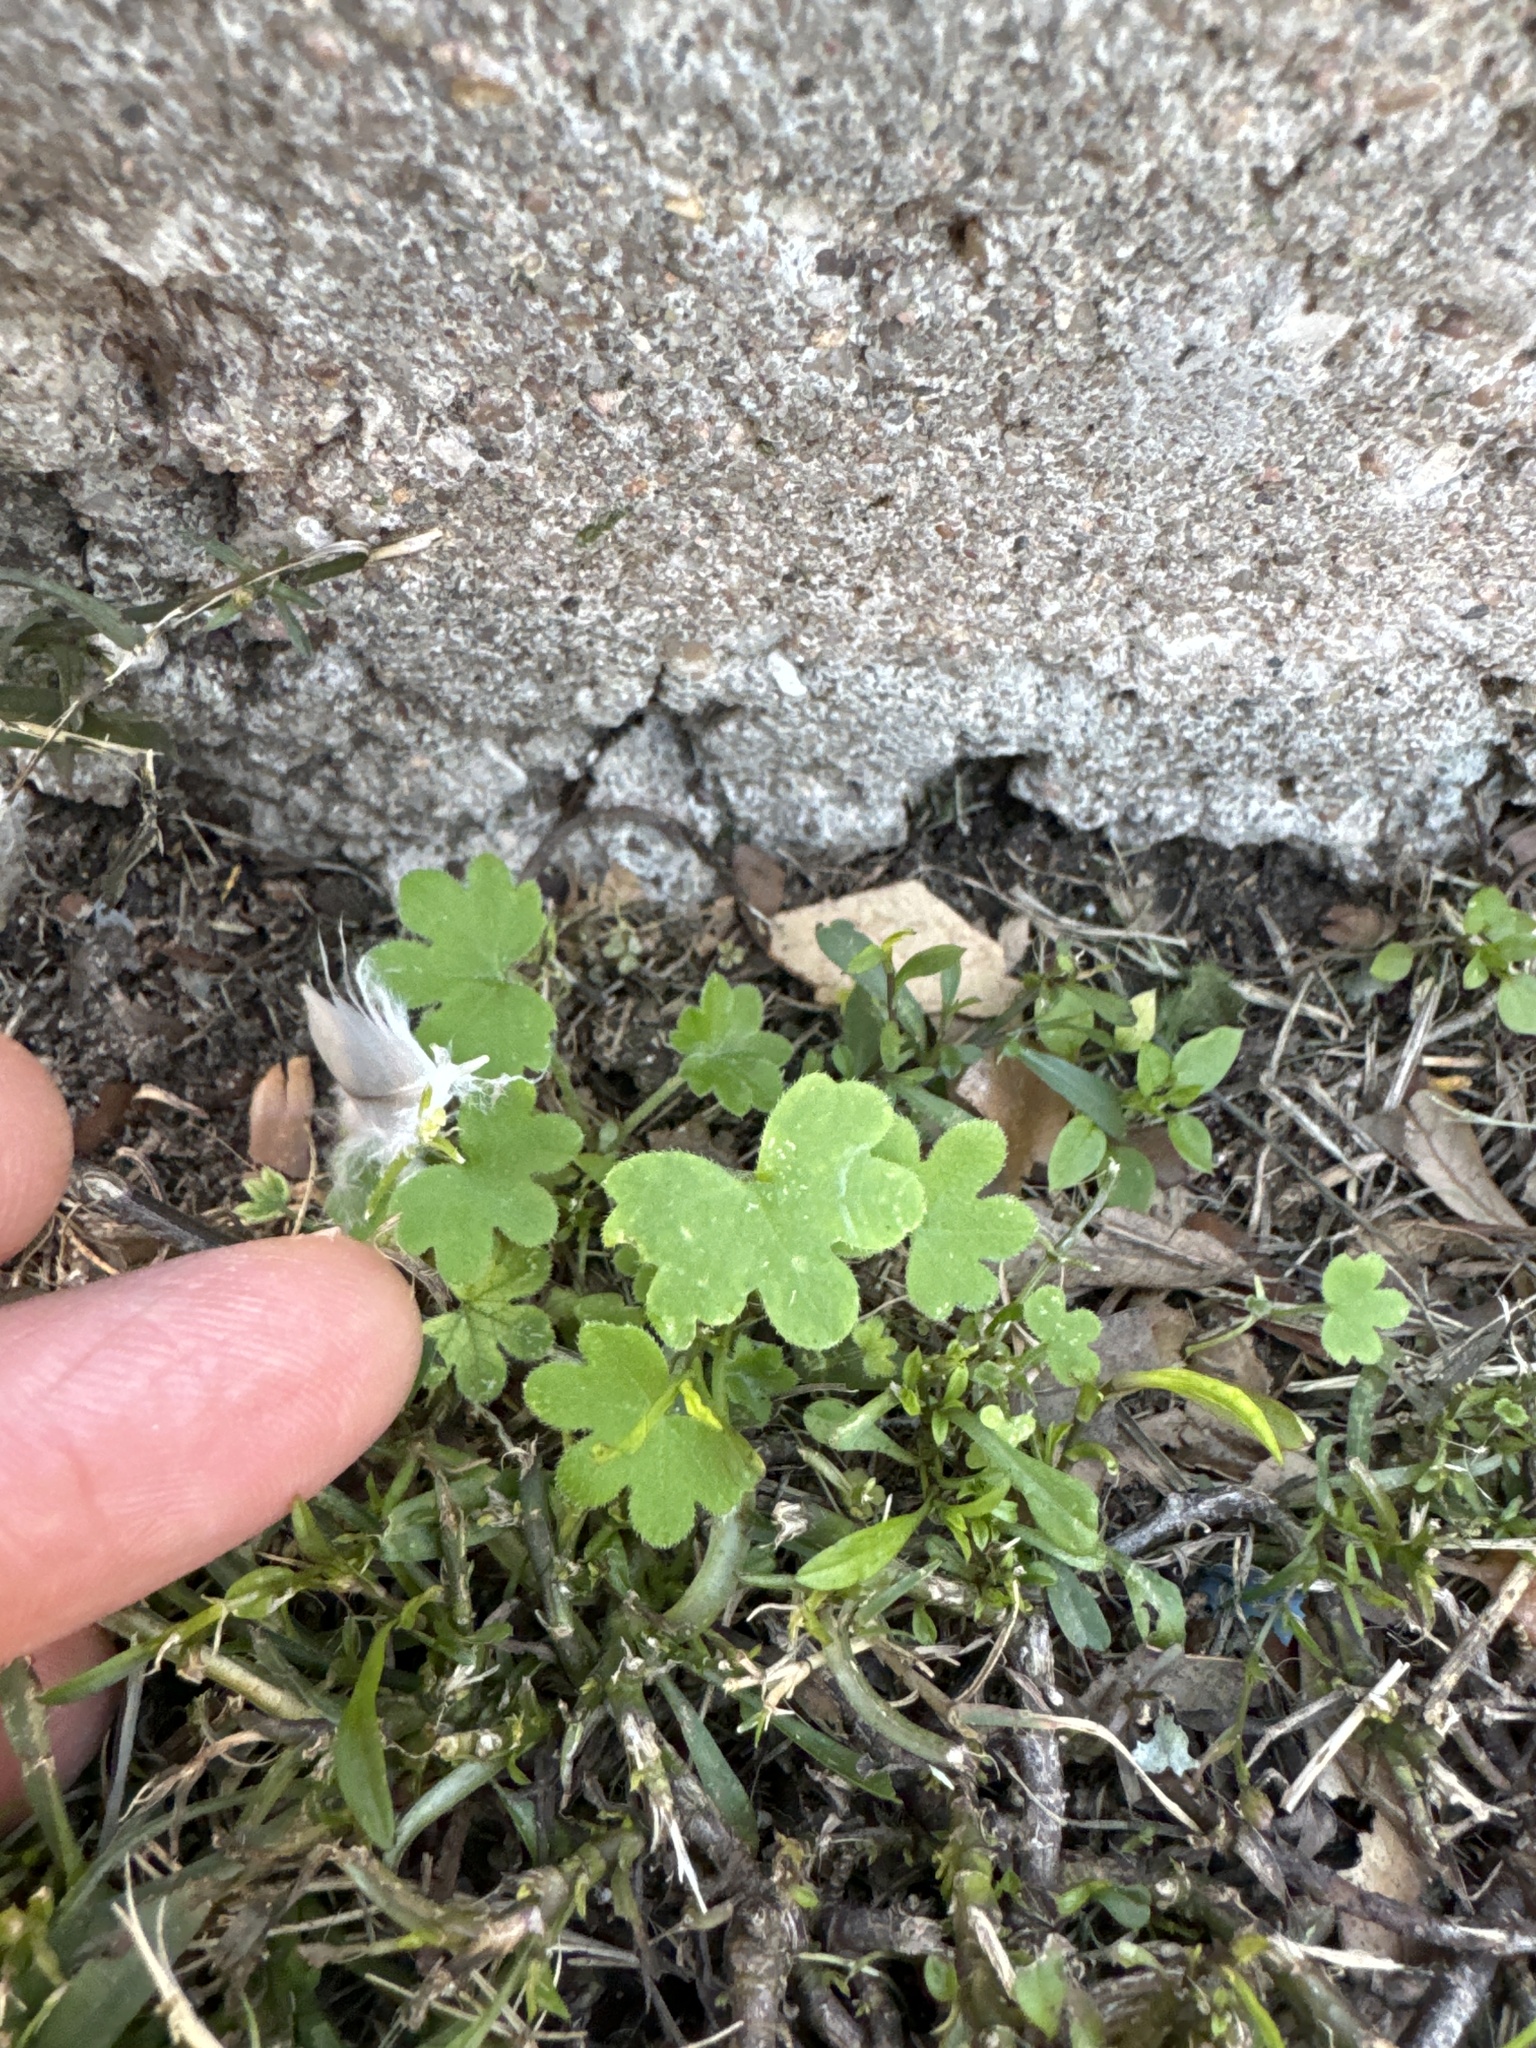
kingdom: Plantae
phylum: Tracheophyta
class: Magnoliopsida
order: Apiales
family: Apiaceae
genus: Bowlesia
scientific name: Bowlesia incana
